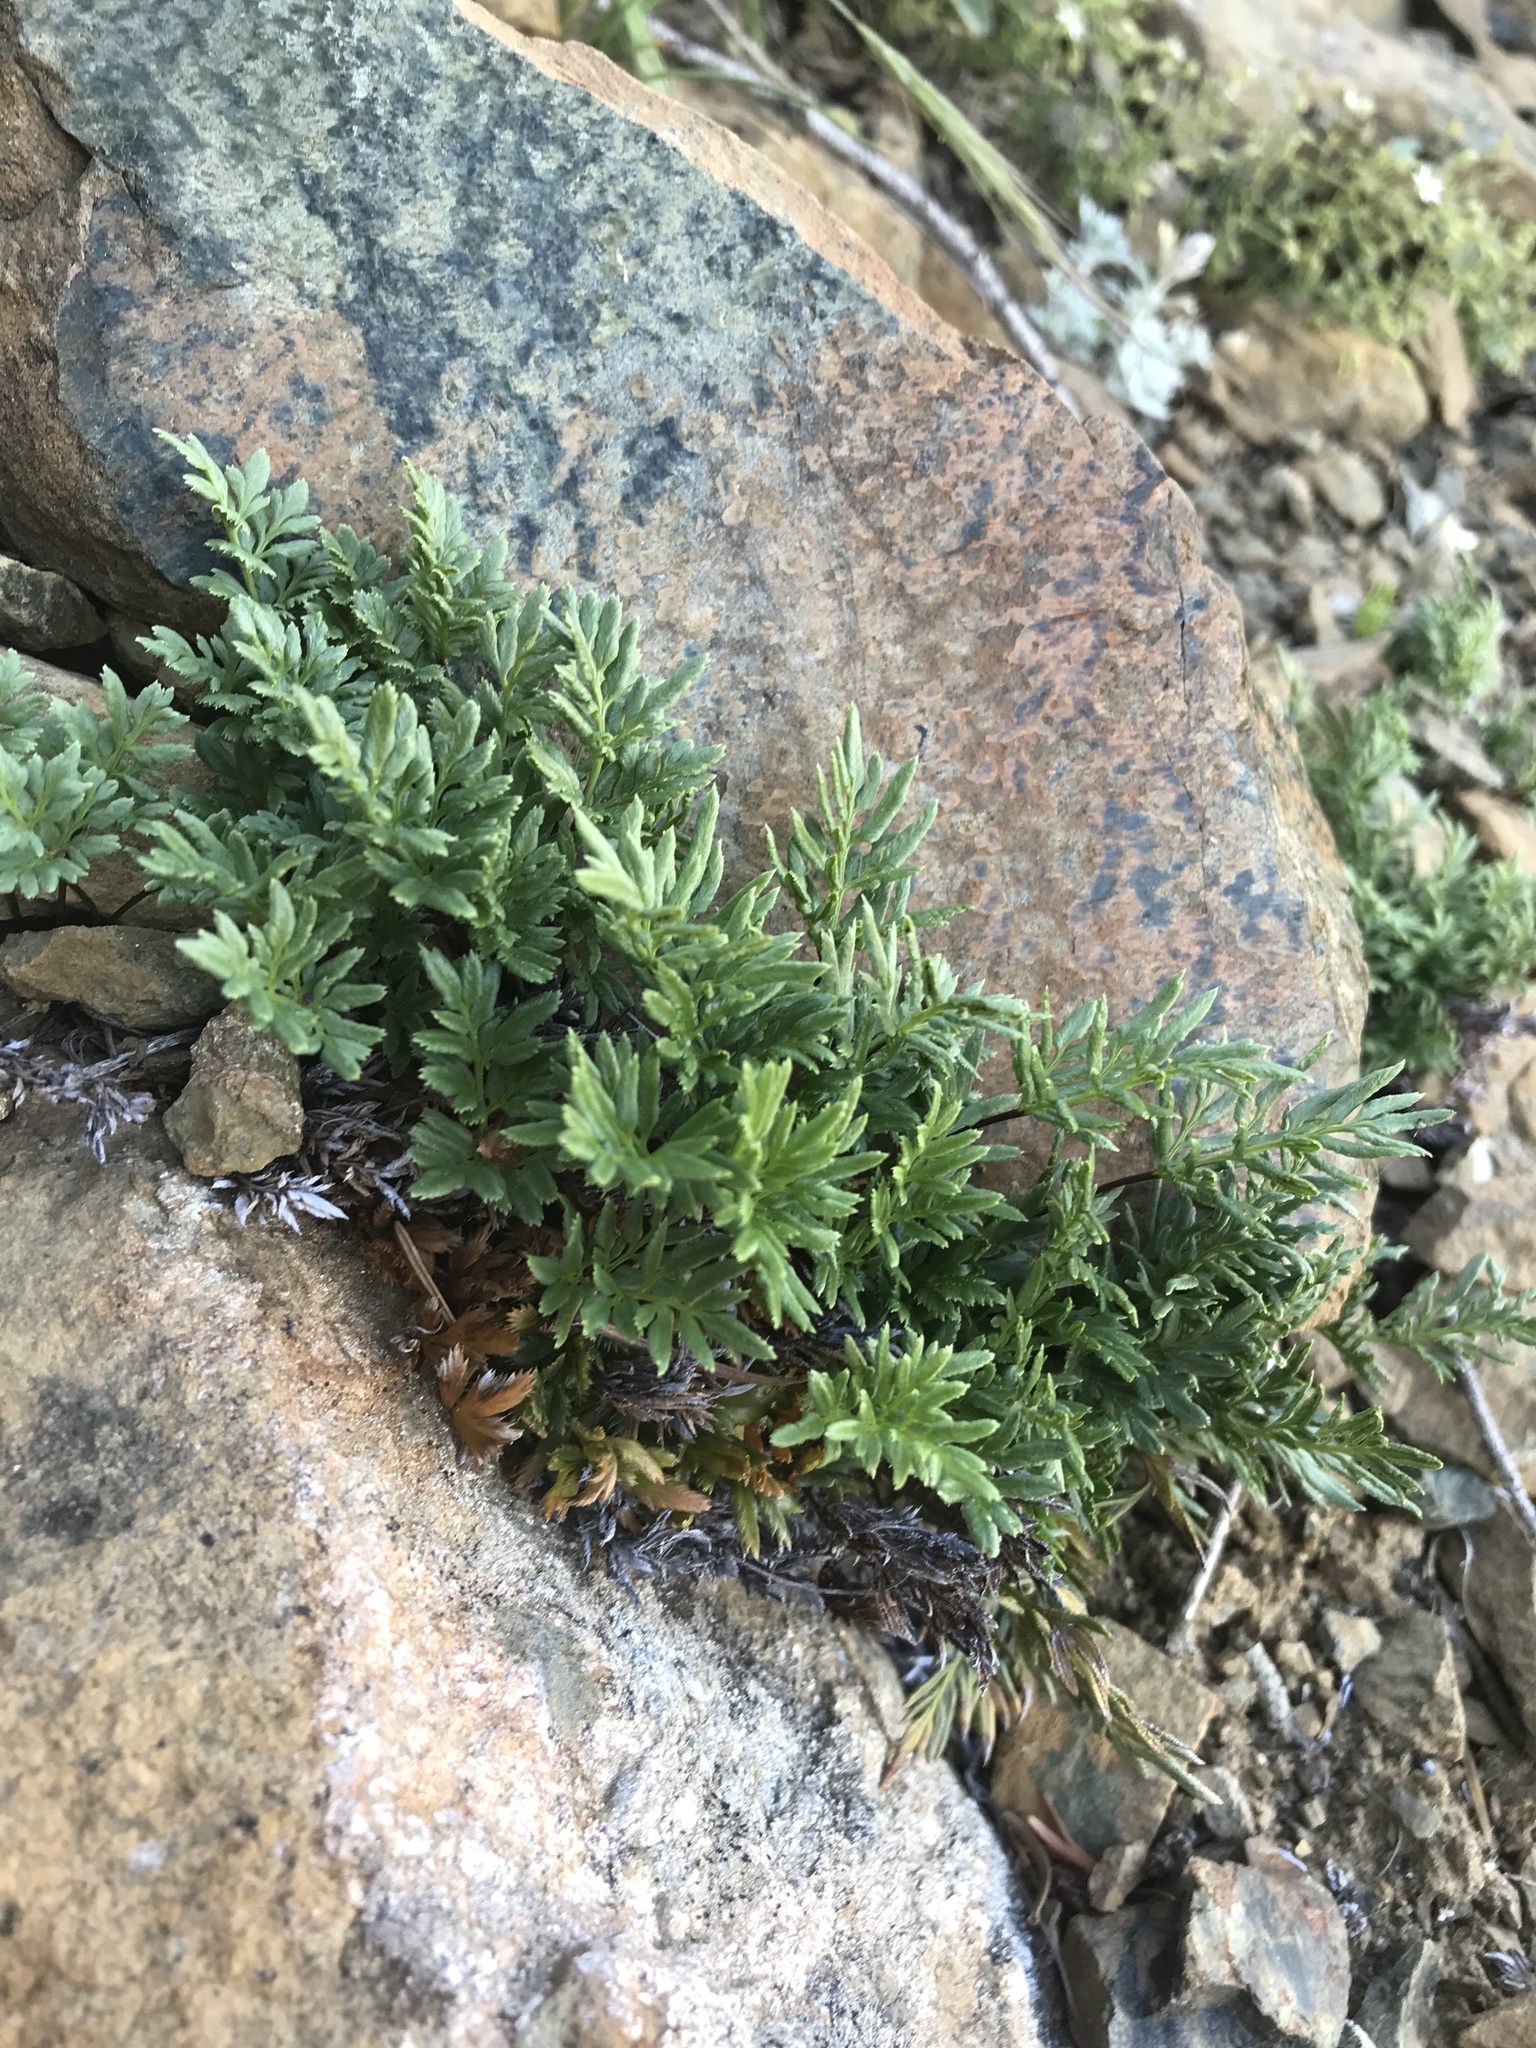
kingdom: Plantae
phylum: Tracheophyta
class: Polypodiopsida
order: Polypodiales
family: Pteridaceae
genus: Aspidotis
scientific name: Aspidotis densa
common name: Indian's dream
